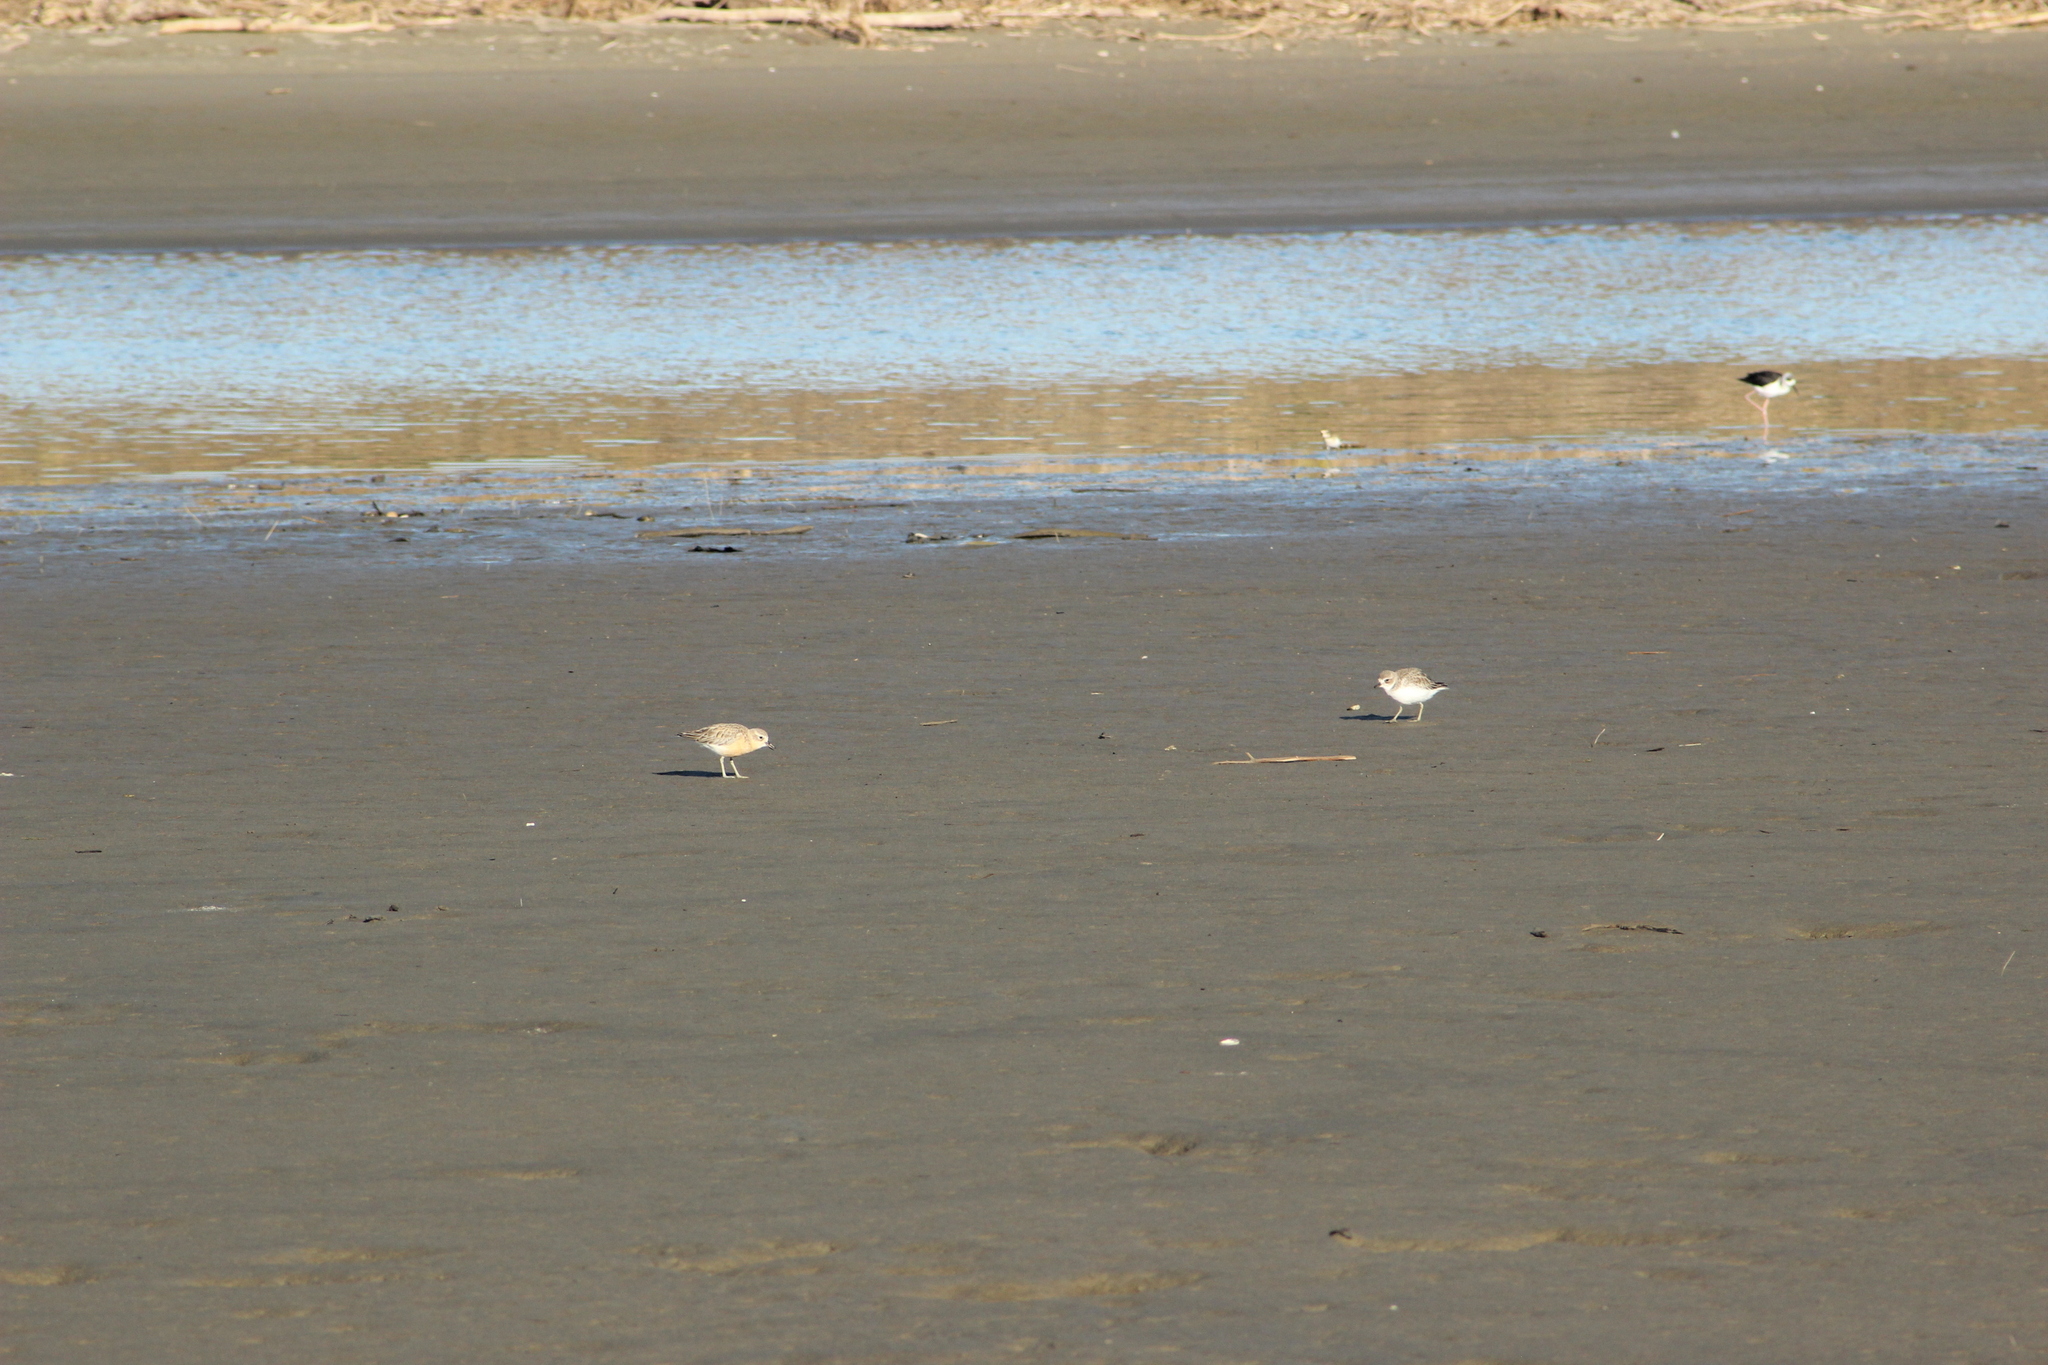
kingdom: Animalia
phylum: Chordata
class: Aves
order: Charadriiformes
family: Charadriidae
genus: Anarhynchus
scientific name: Anarhynchus
